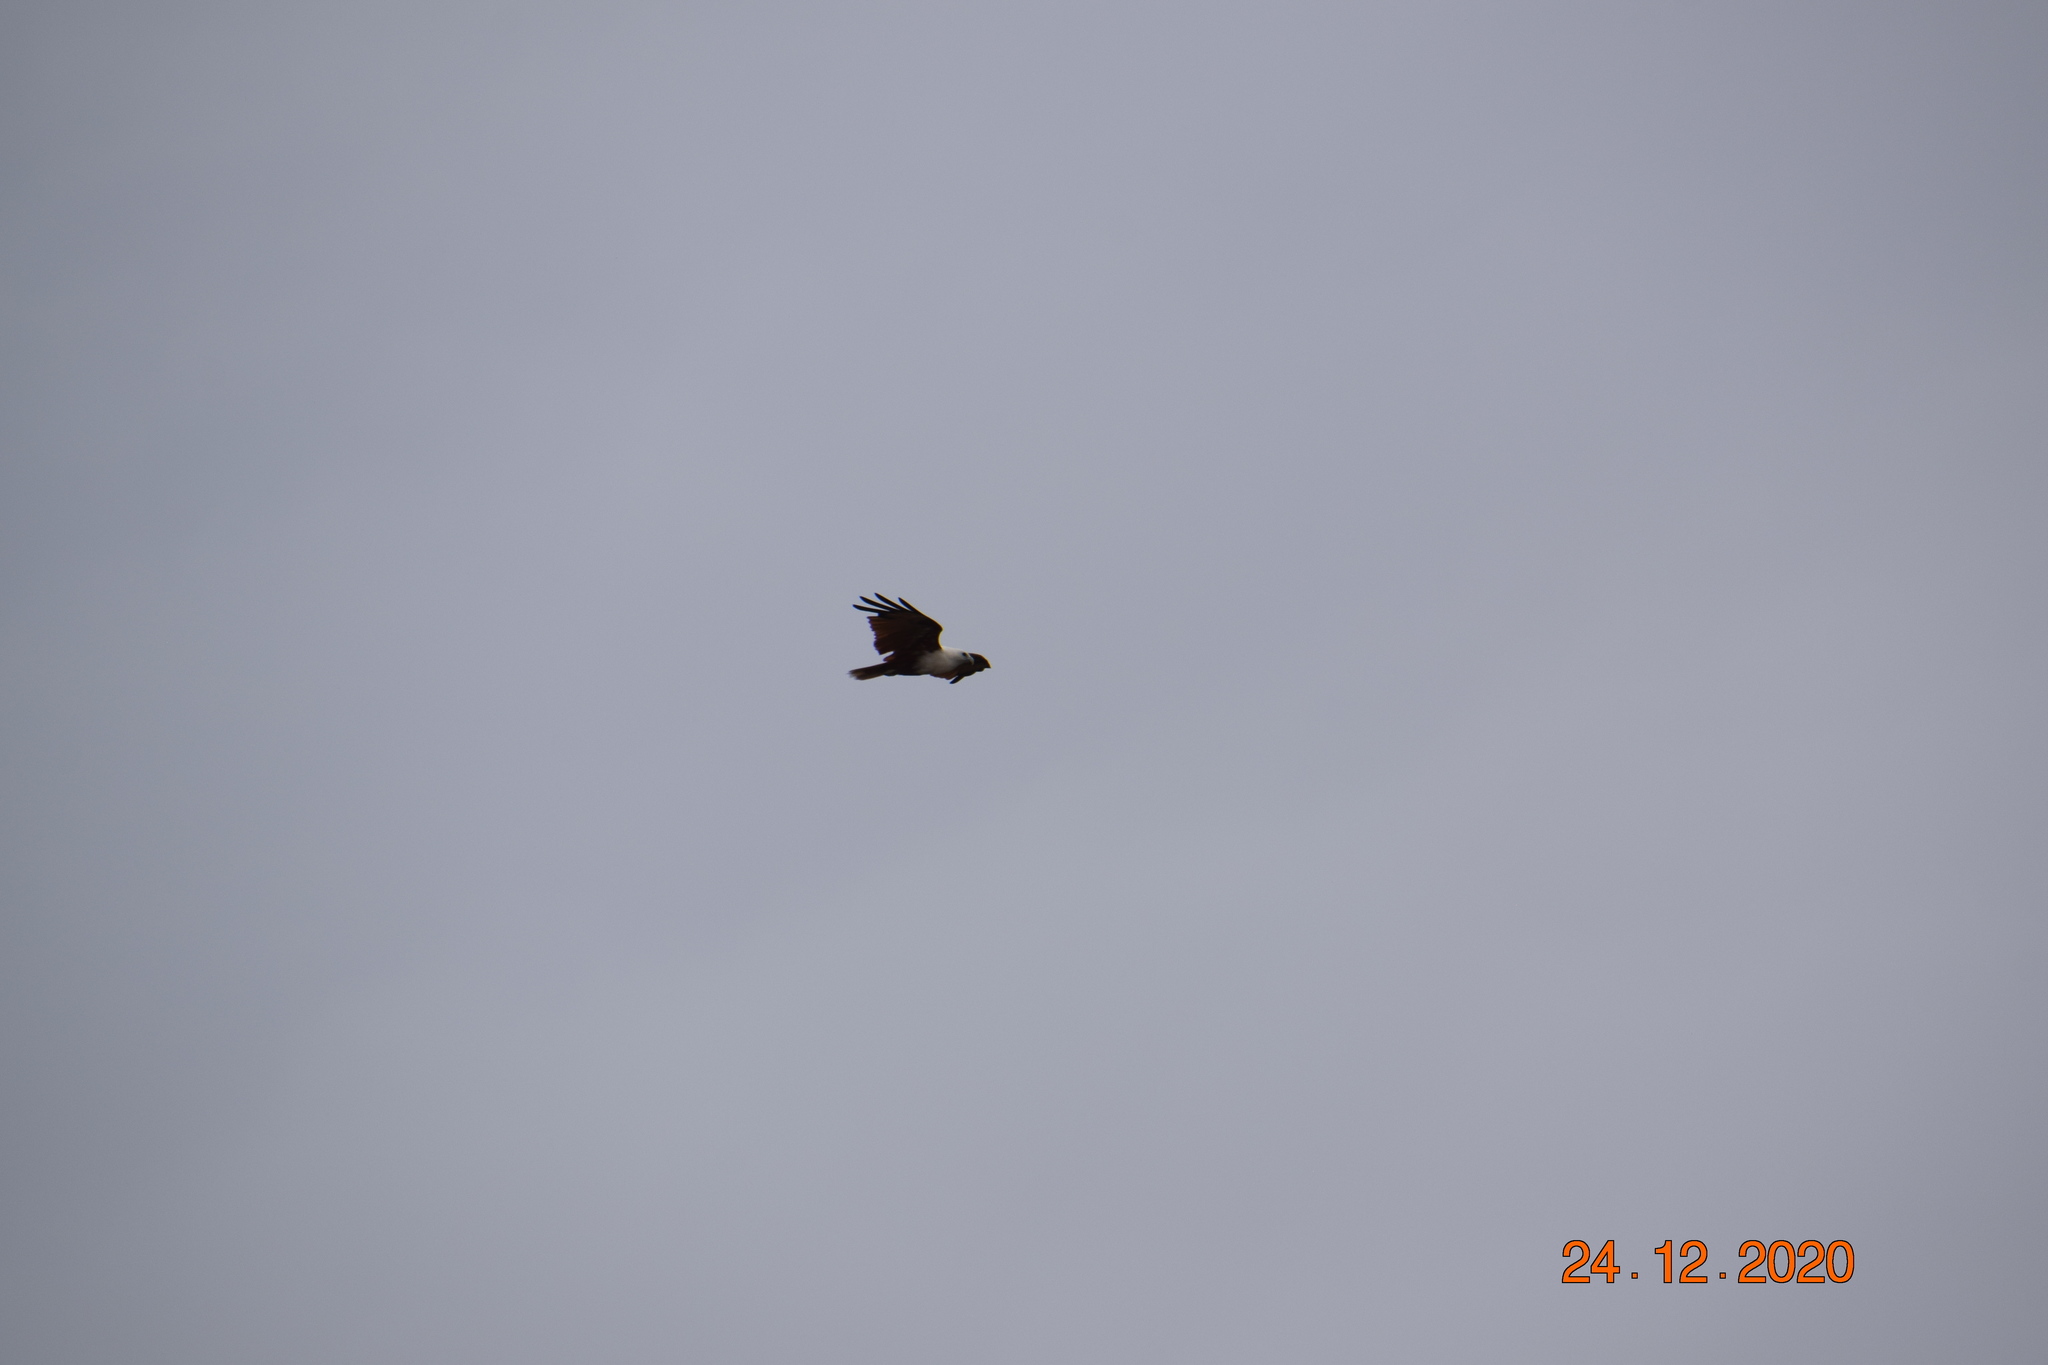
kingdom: Animalia
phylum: Chordata
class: Aves
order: Accipitriformes
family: Accipitridae
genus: Haliastur
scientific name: Haliastur indus
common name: Brahminy kite
